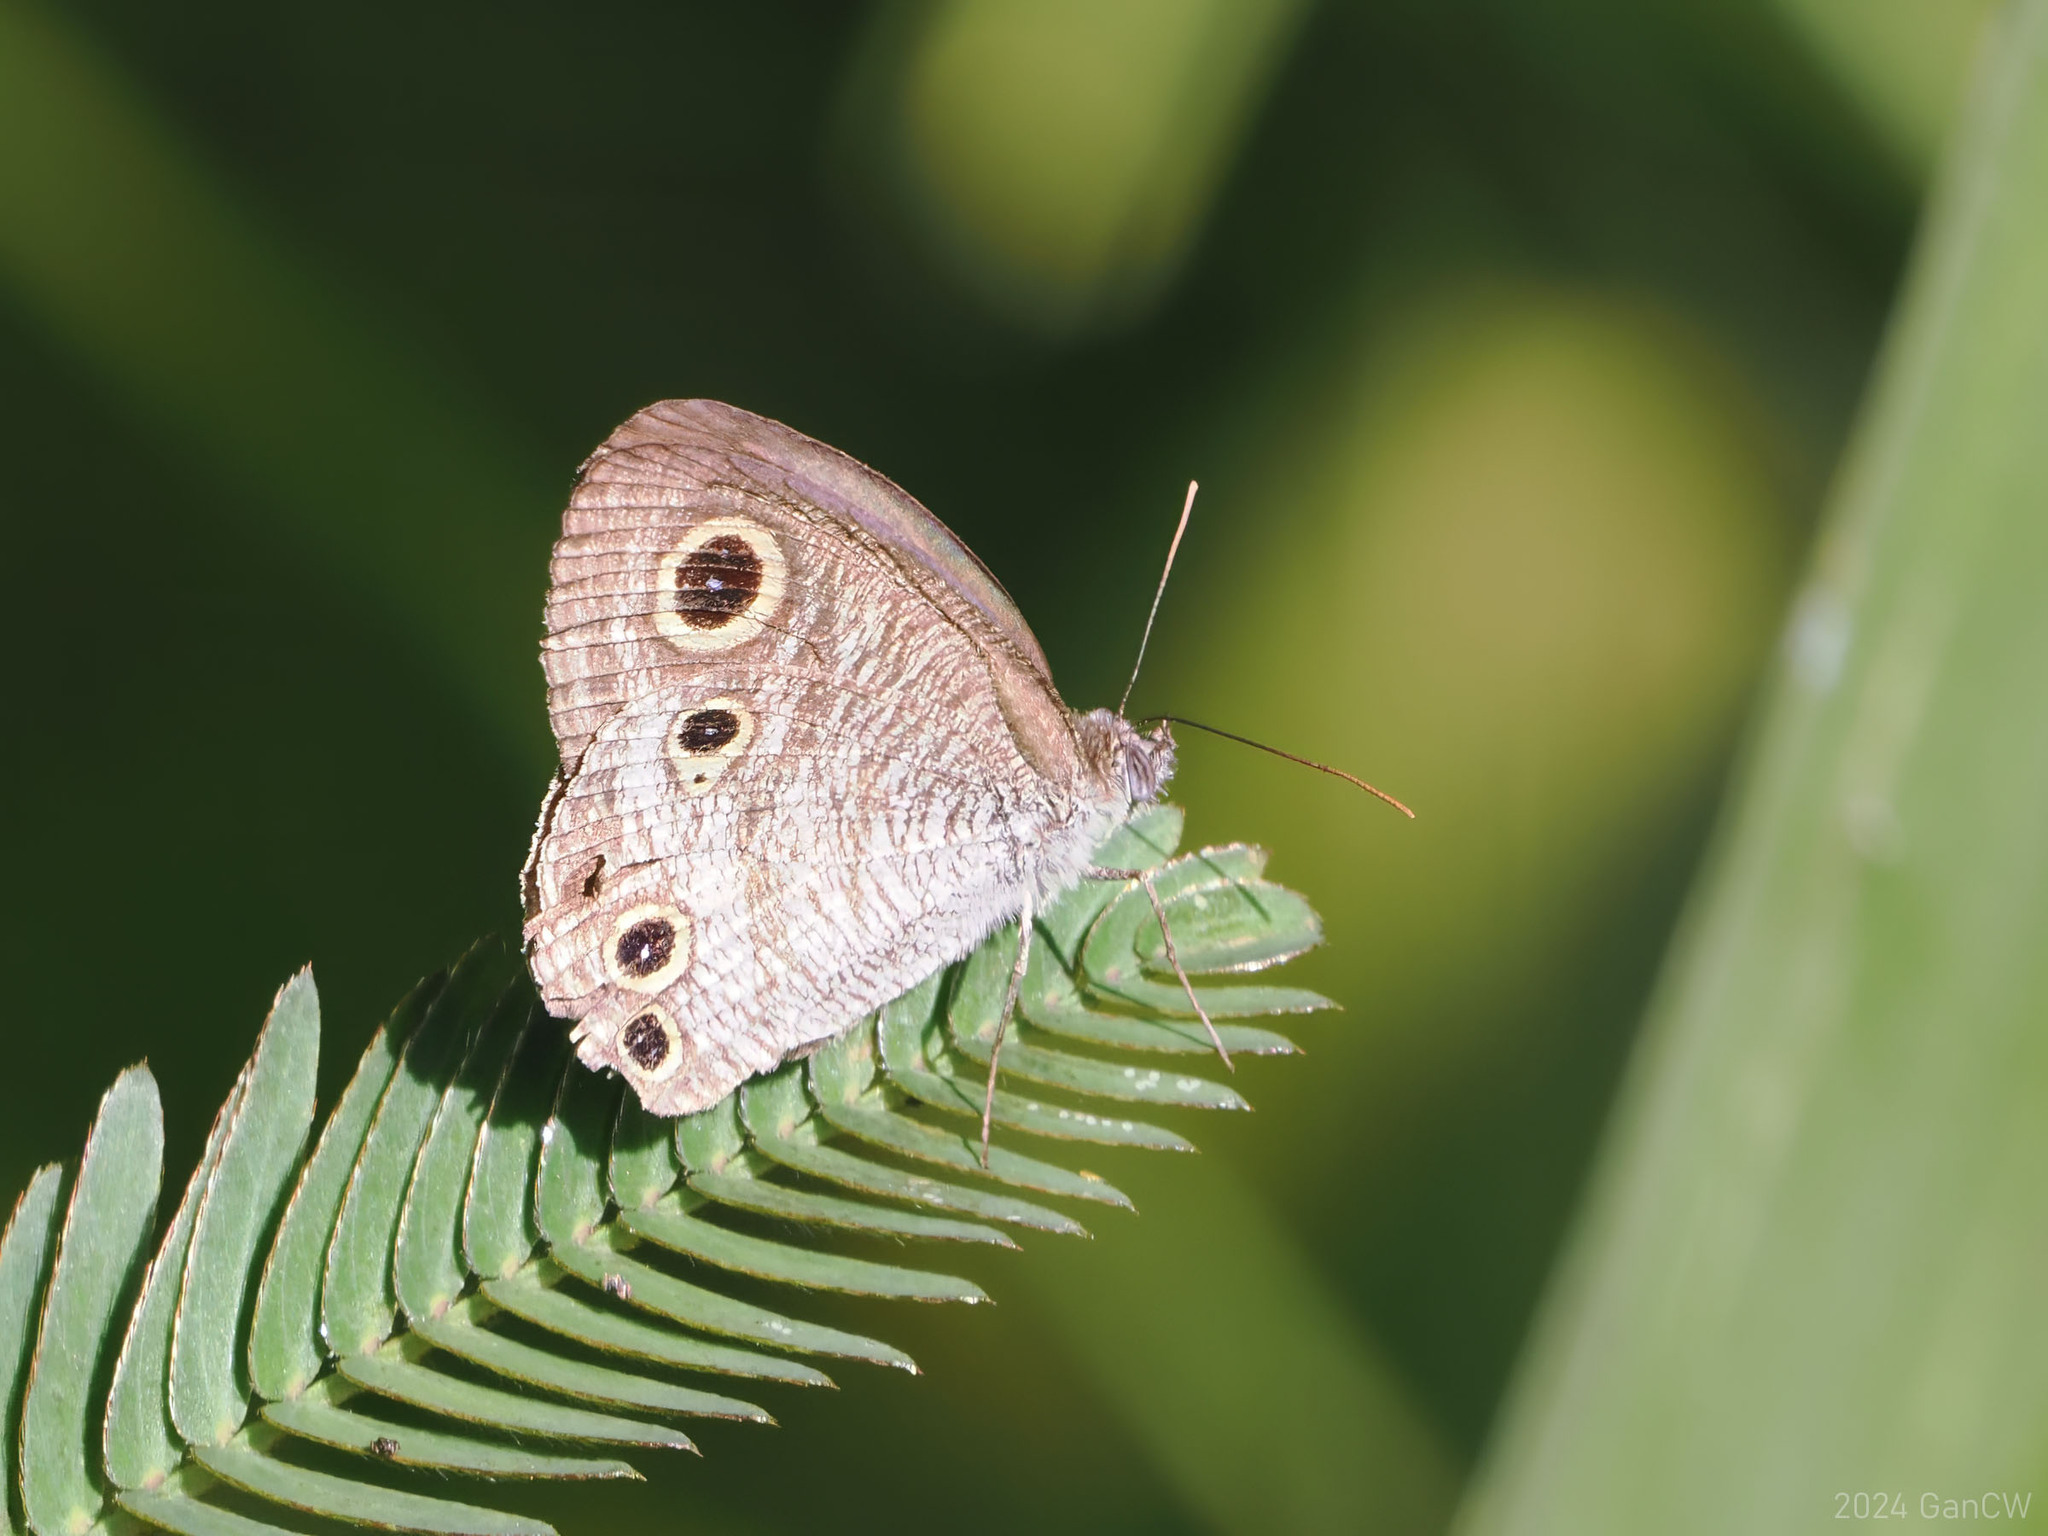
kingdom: Animalia
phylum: Arthropoda
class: Insecta
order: Lepidoptera
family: Nymphalidae
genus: Ypthima
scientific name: Ypthima pandocus
